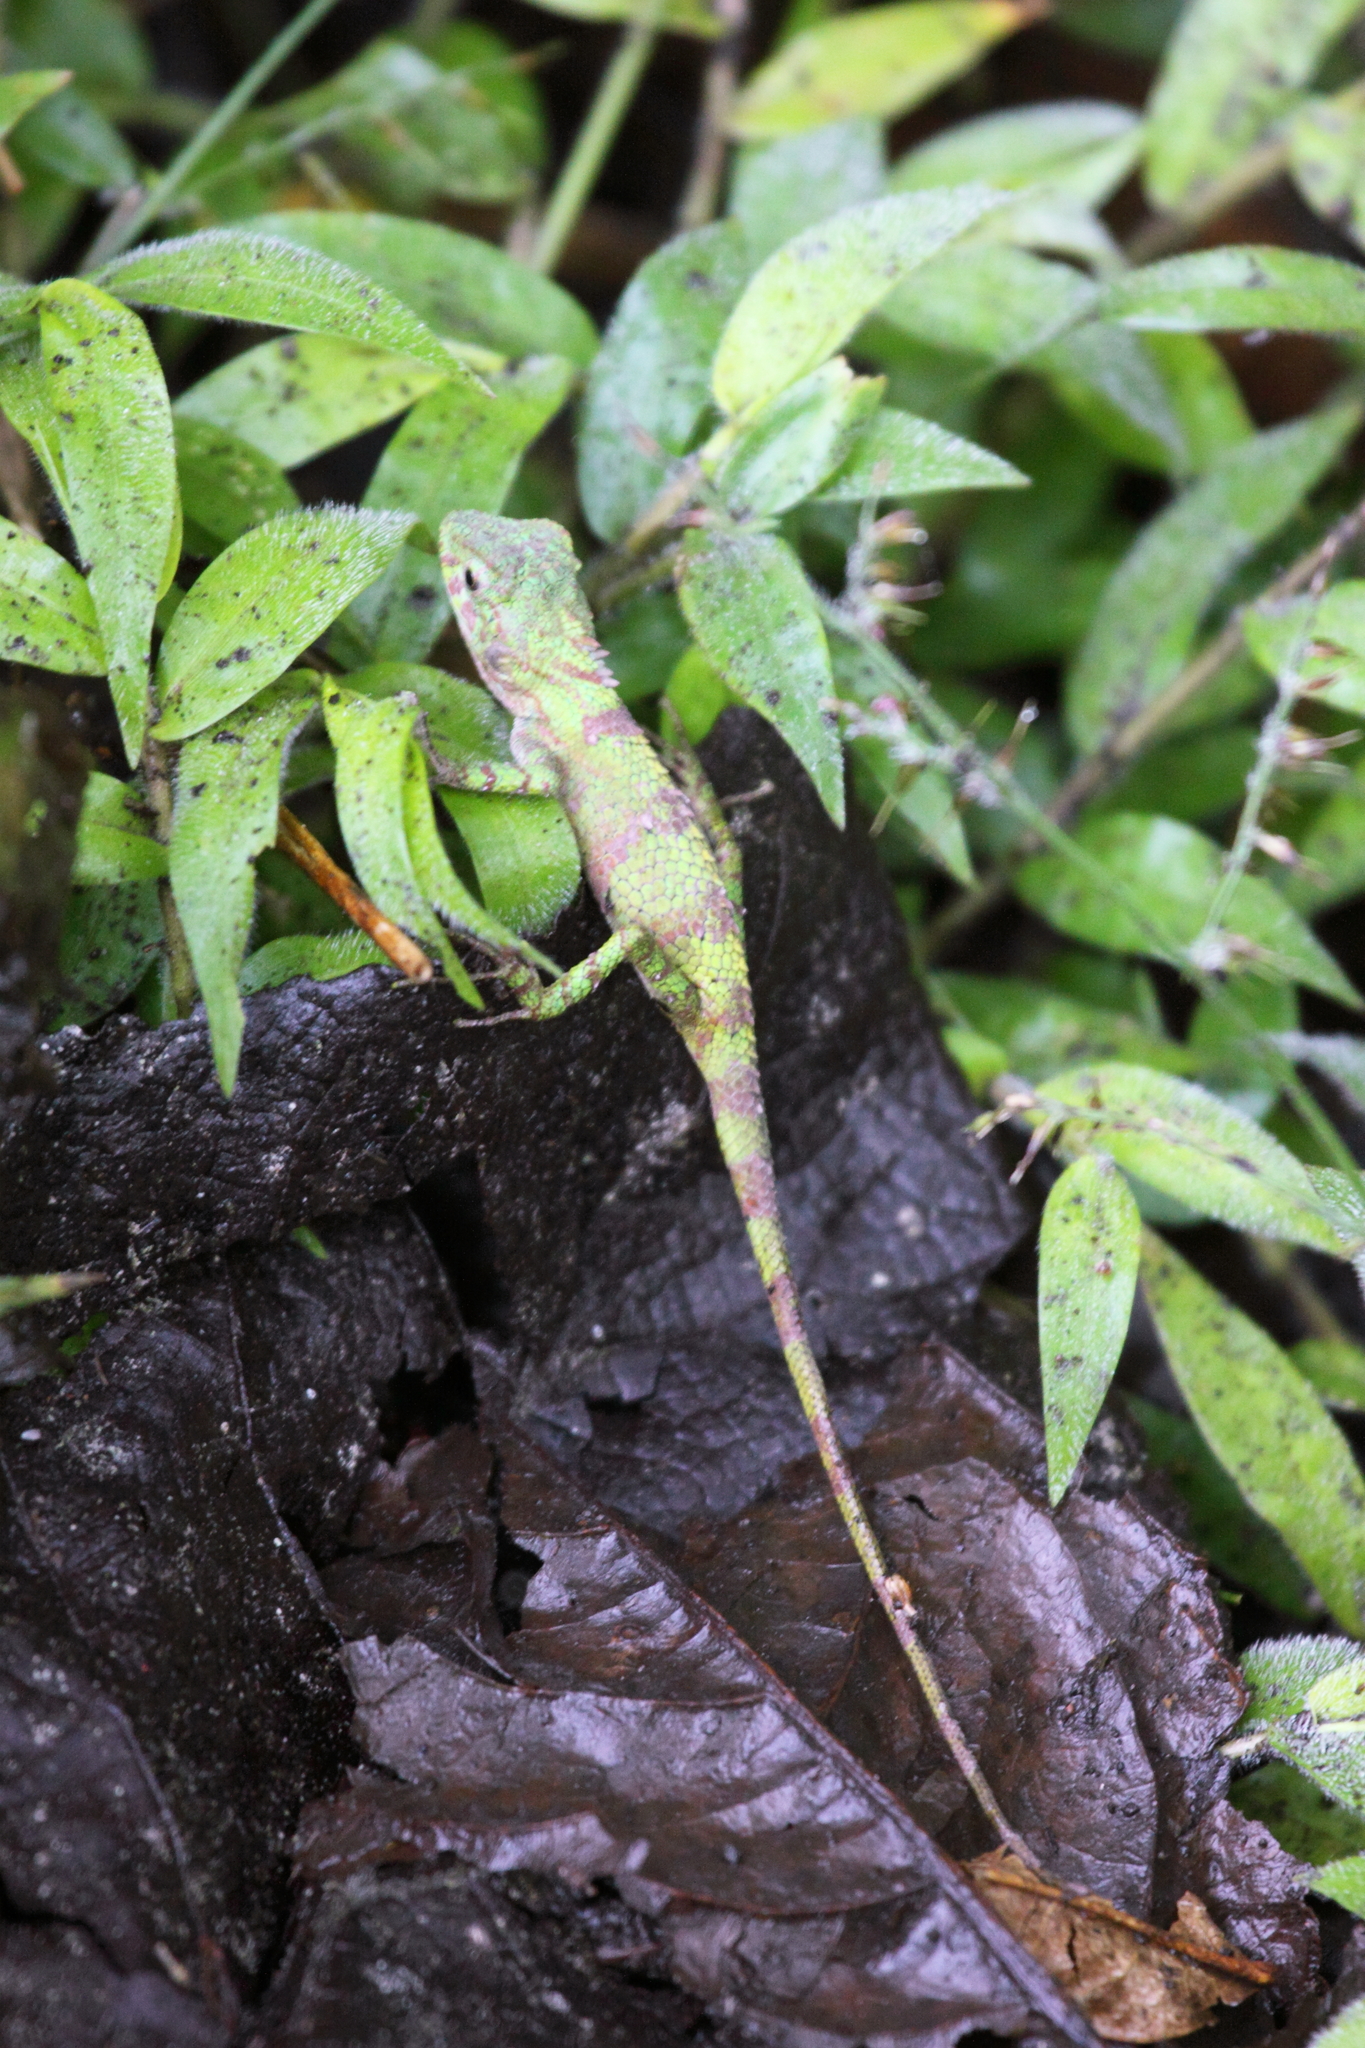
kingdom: Animalia
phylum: Chordata
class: Squamata
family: Agamidae
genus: Pseudocalotes
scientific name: Pseudocalotes tympanistriga
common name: Indonesian false bloodsucker
